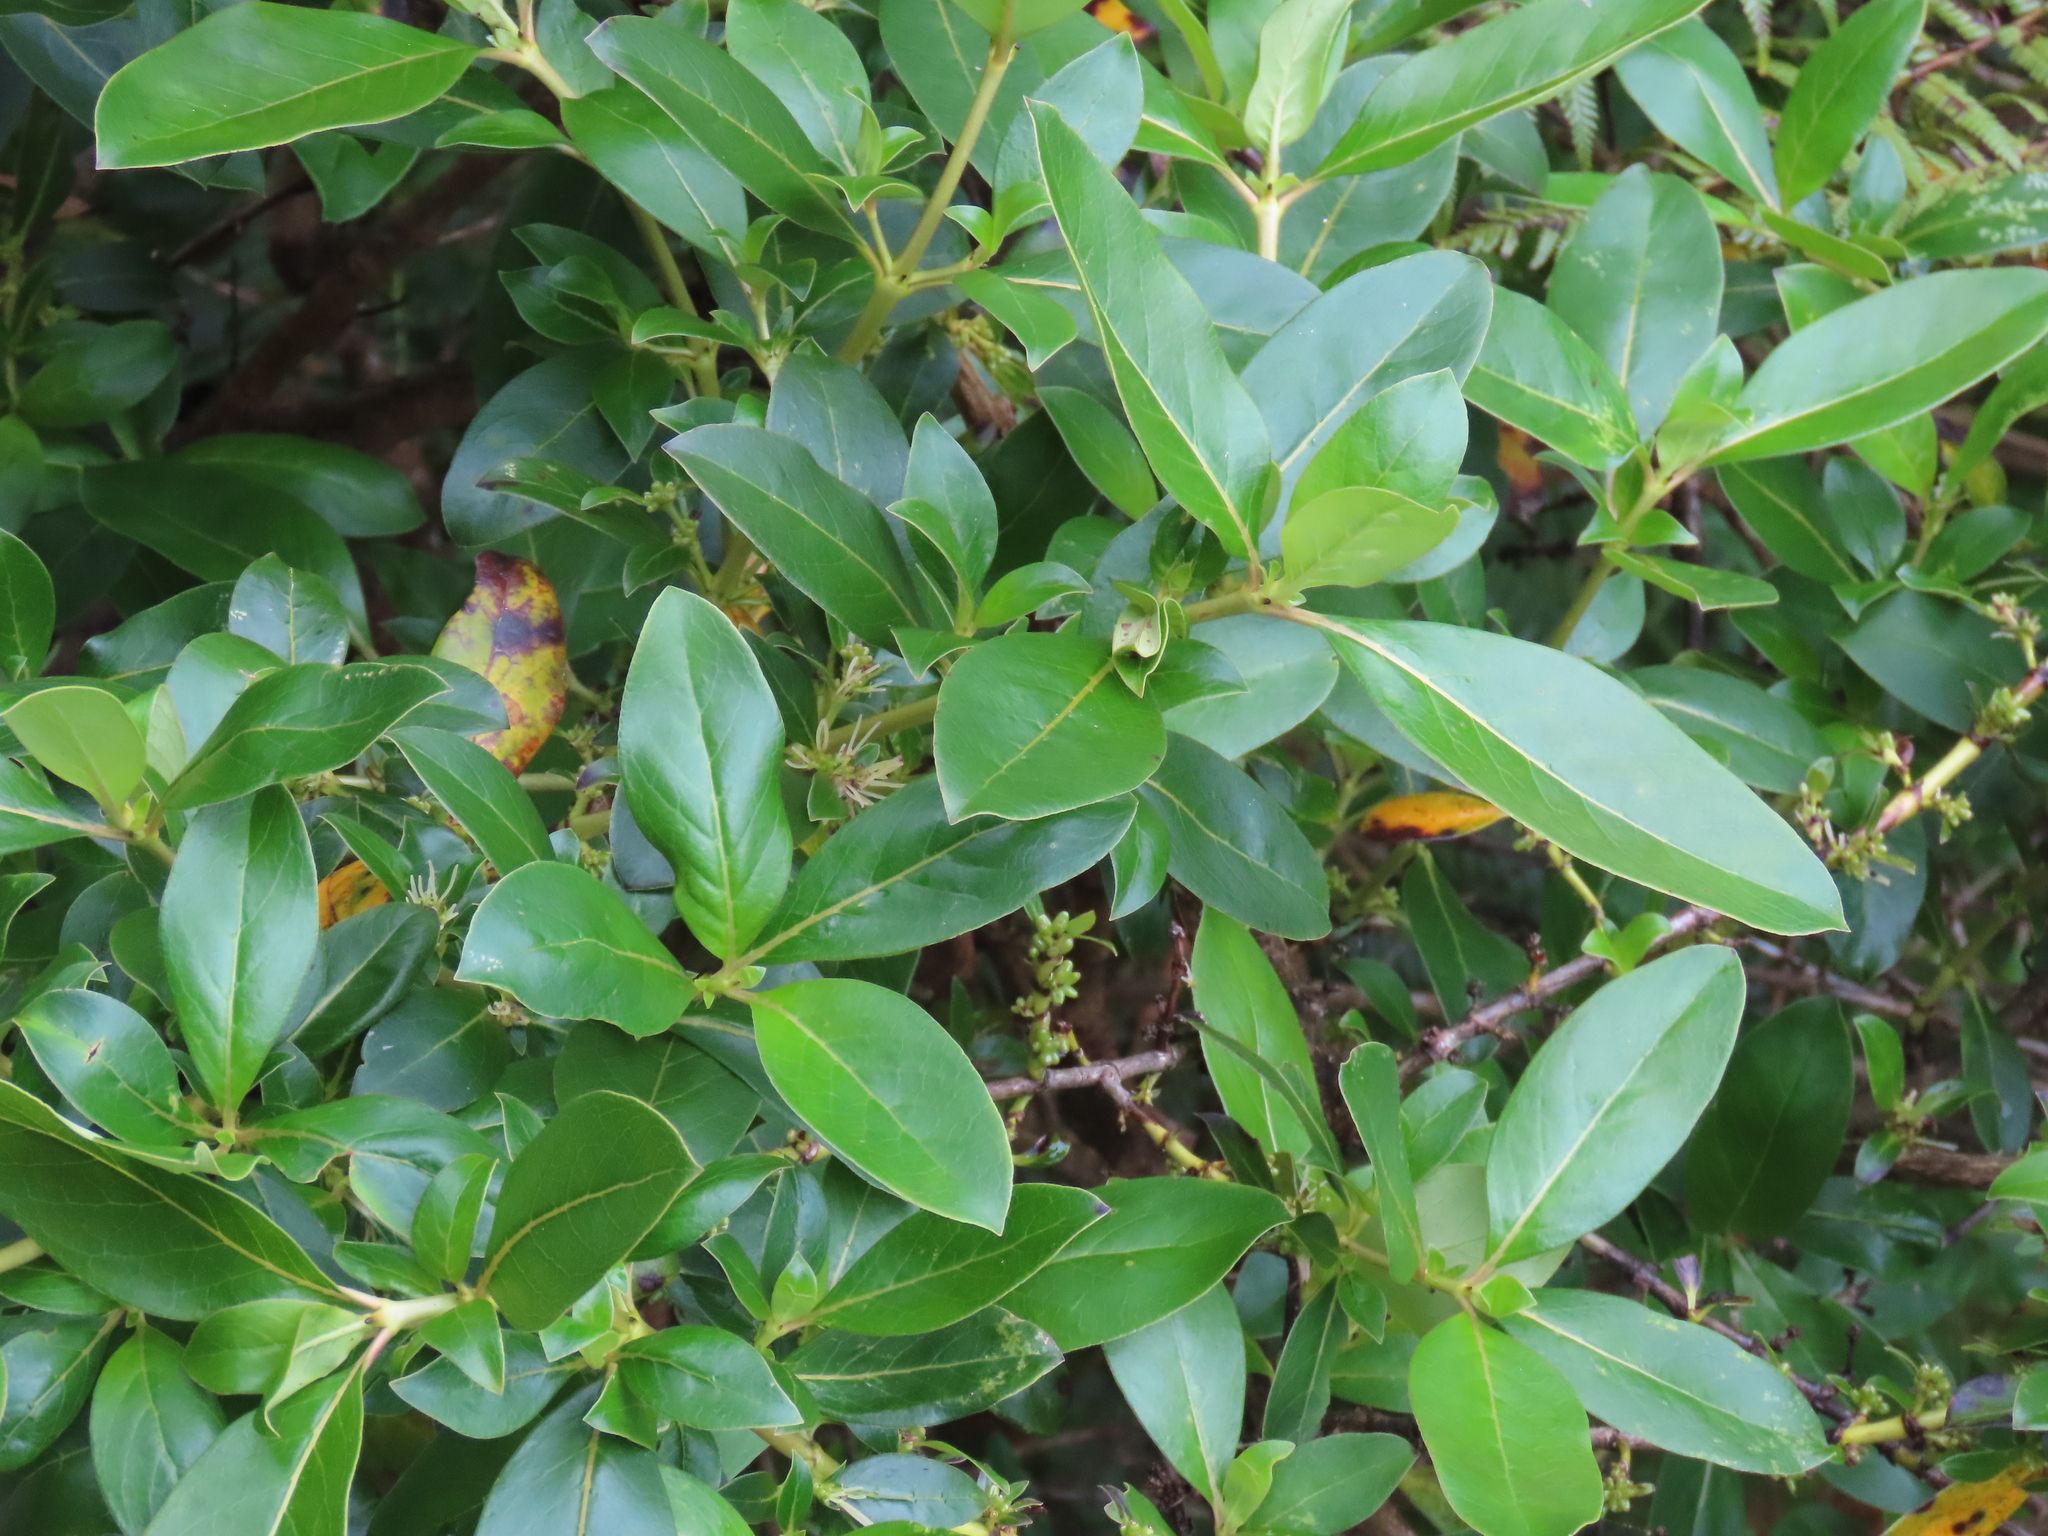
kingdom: Plantae
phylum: Tracheophyta
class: Magnoliopsida
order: Gentianales
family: Rubiaceae
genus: Coprosma
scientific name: Coprosma robusta
